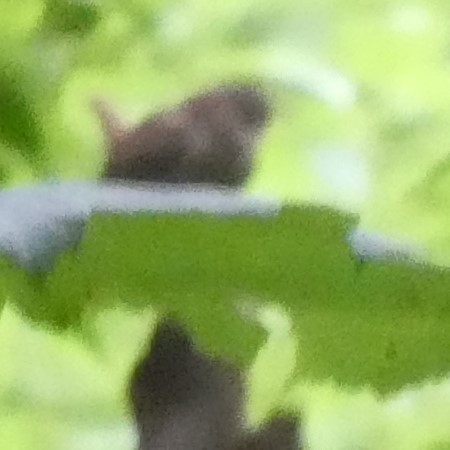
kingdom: Animalia
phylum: Chordata
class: Aves
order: Passeriformes
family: Troglodytidae
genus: Troglodytes
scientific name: Troglodytes troglodytes
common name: Eurasian wren
